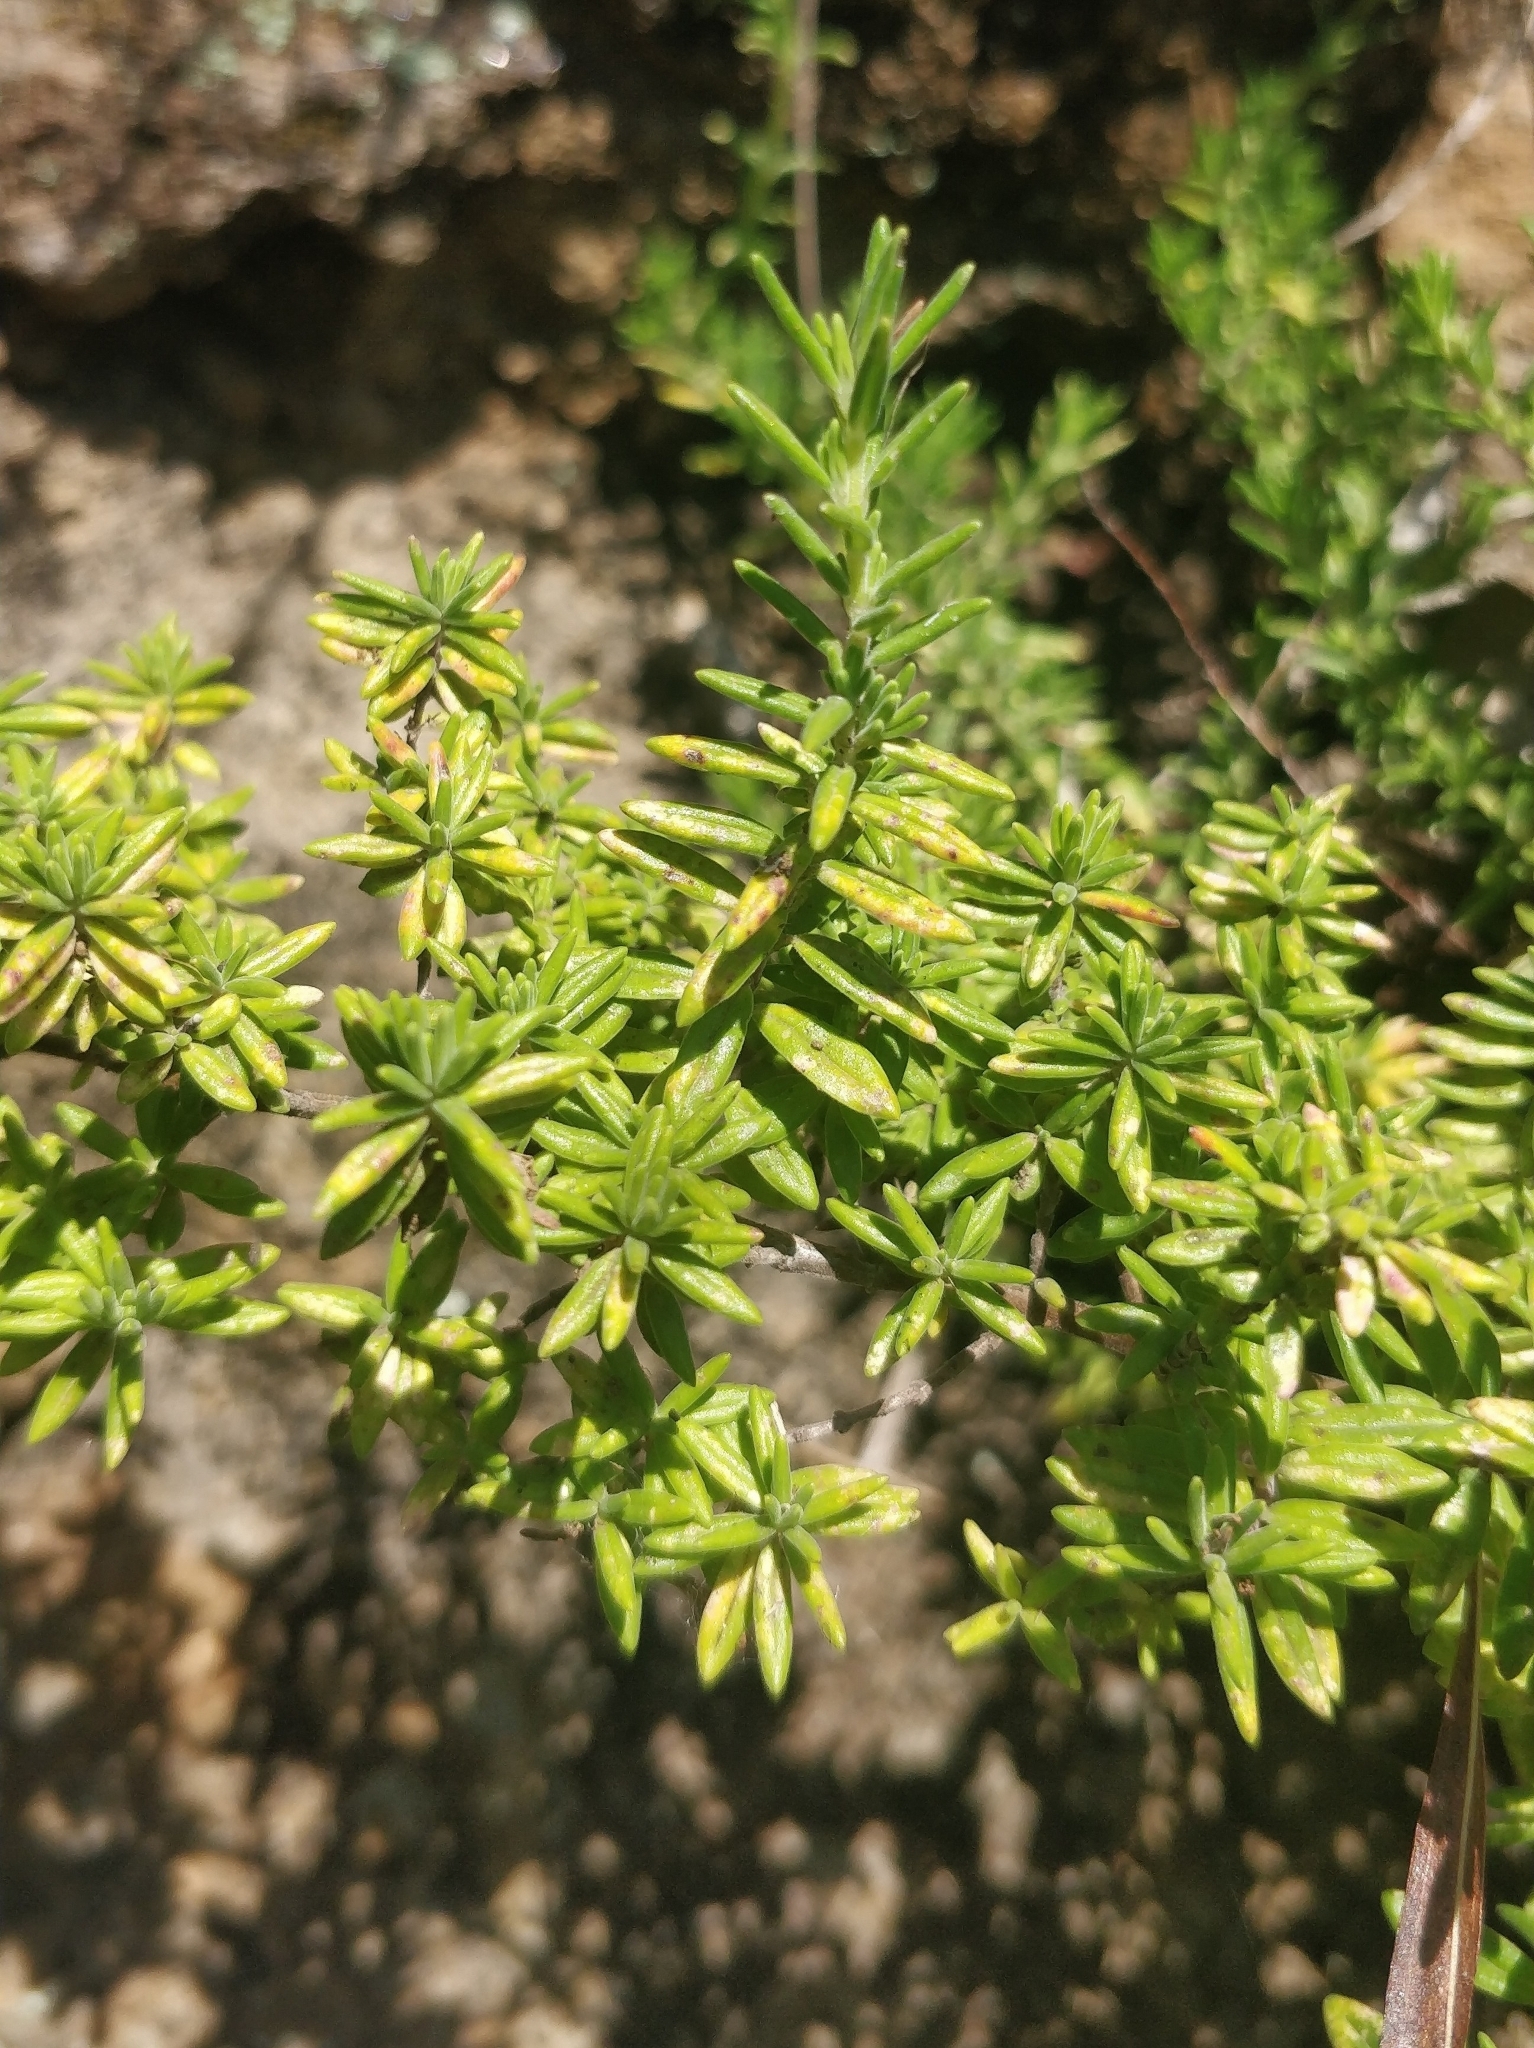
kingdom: Plantae
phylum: Tracheophyta
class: Magnoliopsida
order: Lamiales
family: Lamiaceae
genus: Micromeria
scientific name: Micromeria maderensis
